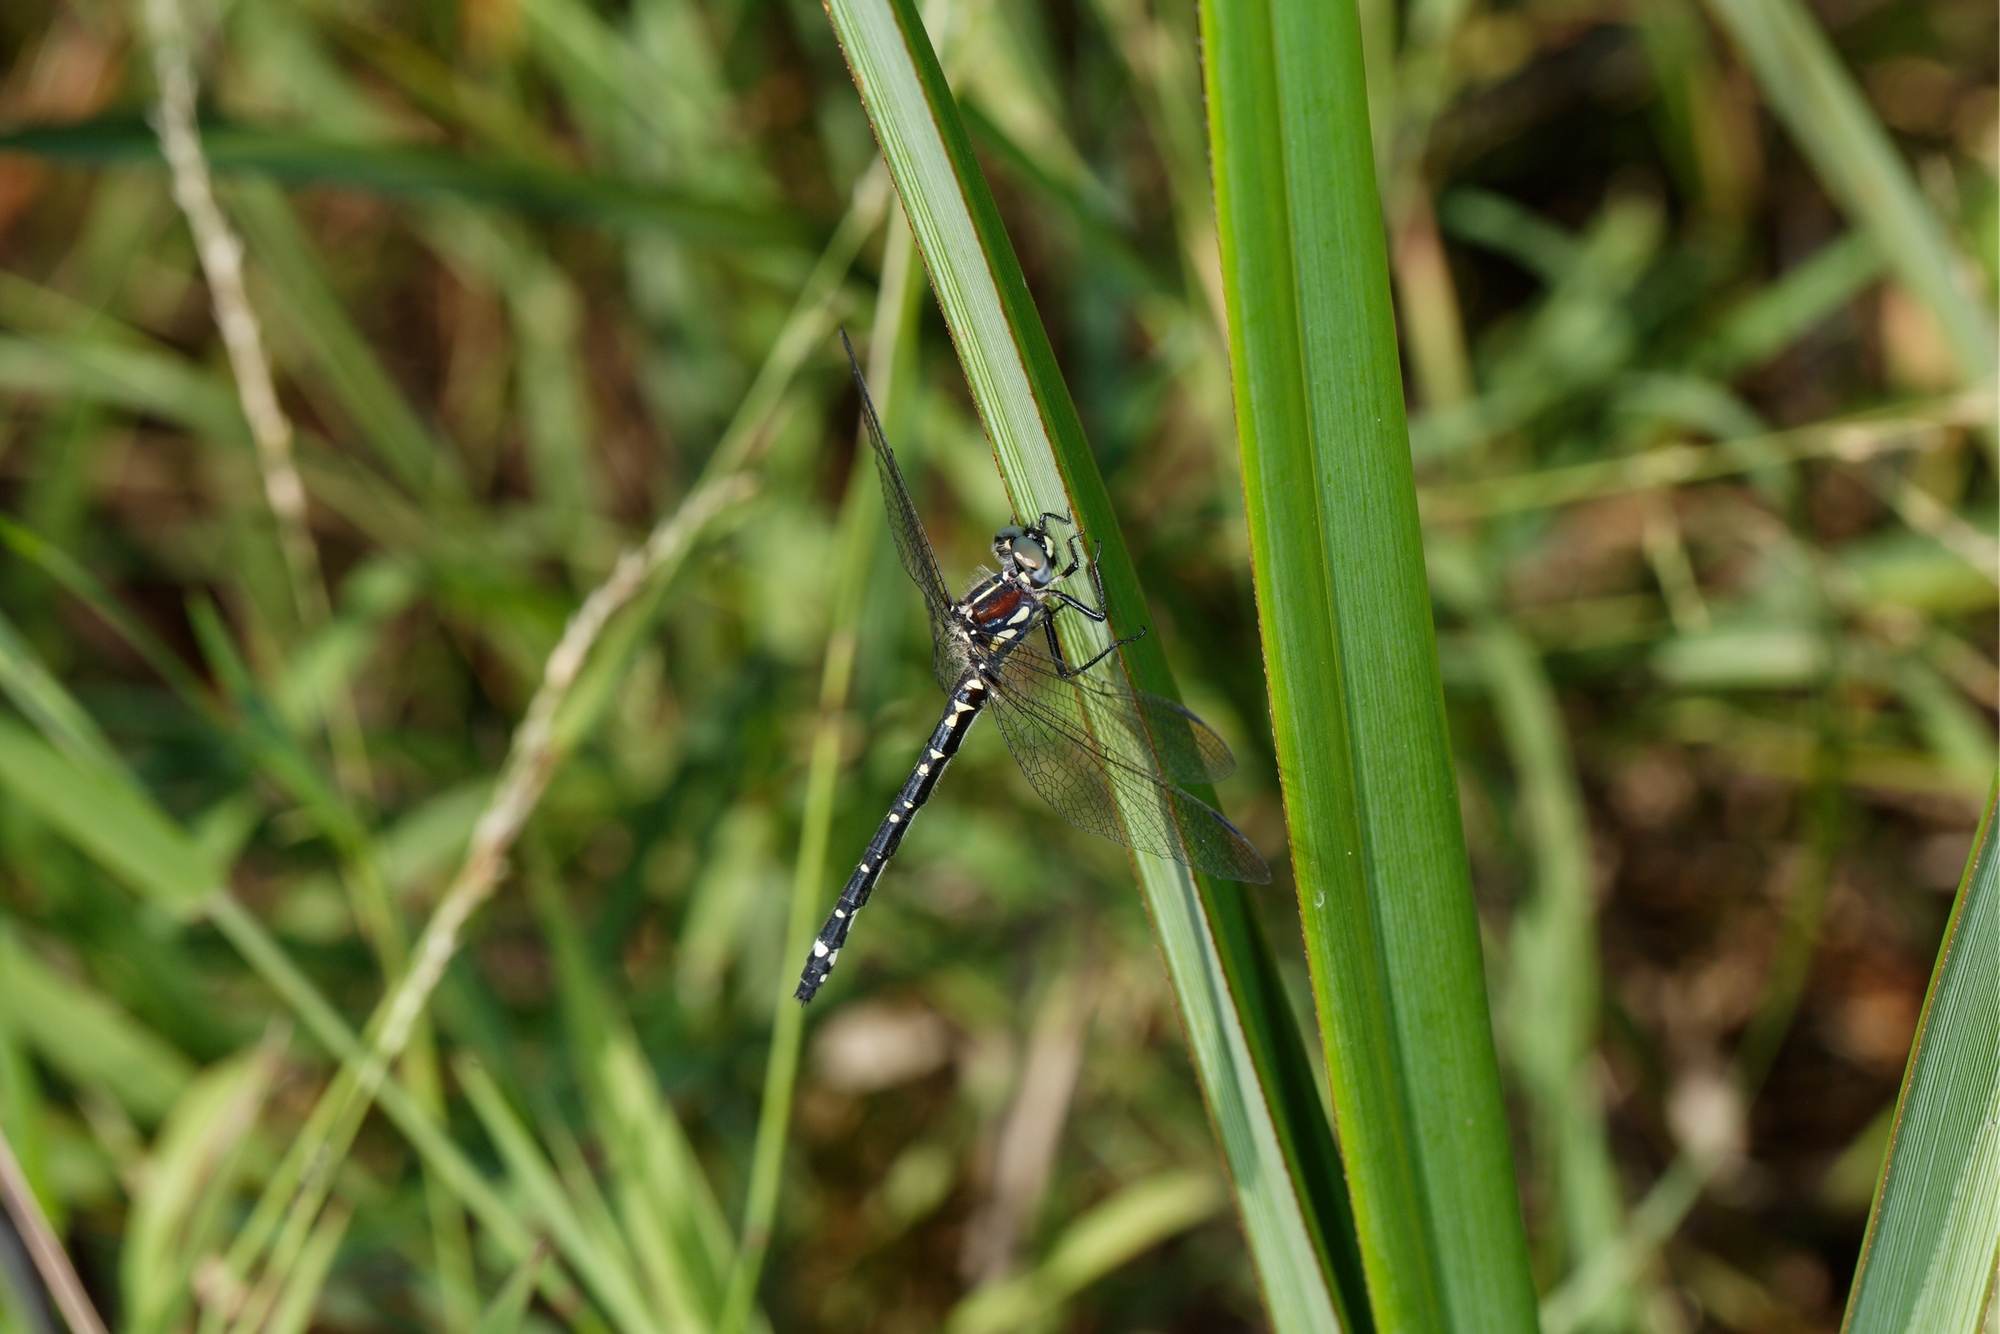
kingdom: Animalia
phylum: Arthropoda
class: Insecta
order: Odonata
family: Synthemistidae
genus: Eusynthemis
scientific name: Eusynthemis brevistyla
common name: Small tigertail
